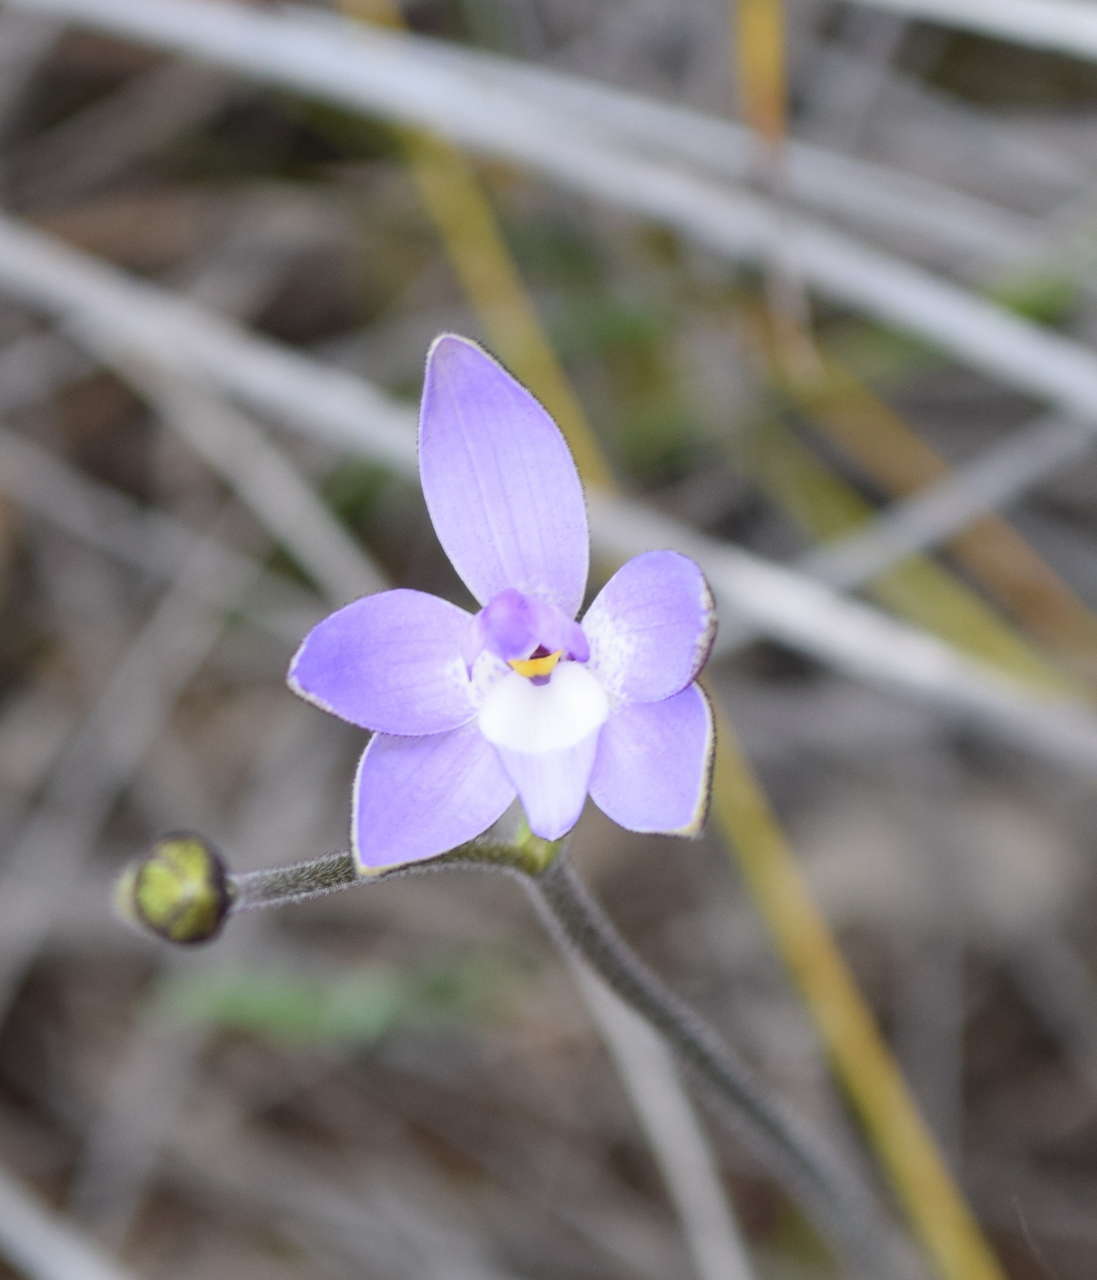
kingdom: Plantae
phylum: Tracheophyta
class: Liliopsida
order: Asparagales
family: Orchidaceae
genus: Caladenia
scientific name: Caladenia major
